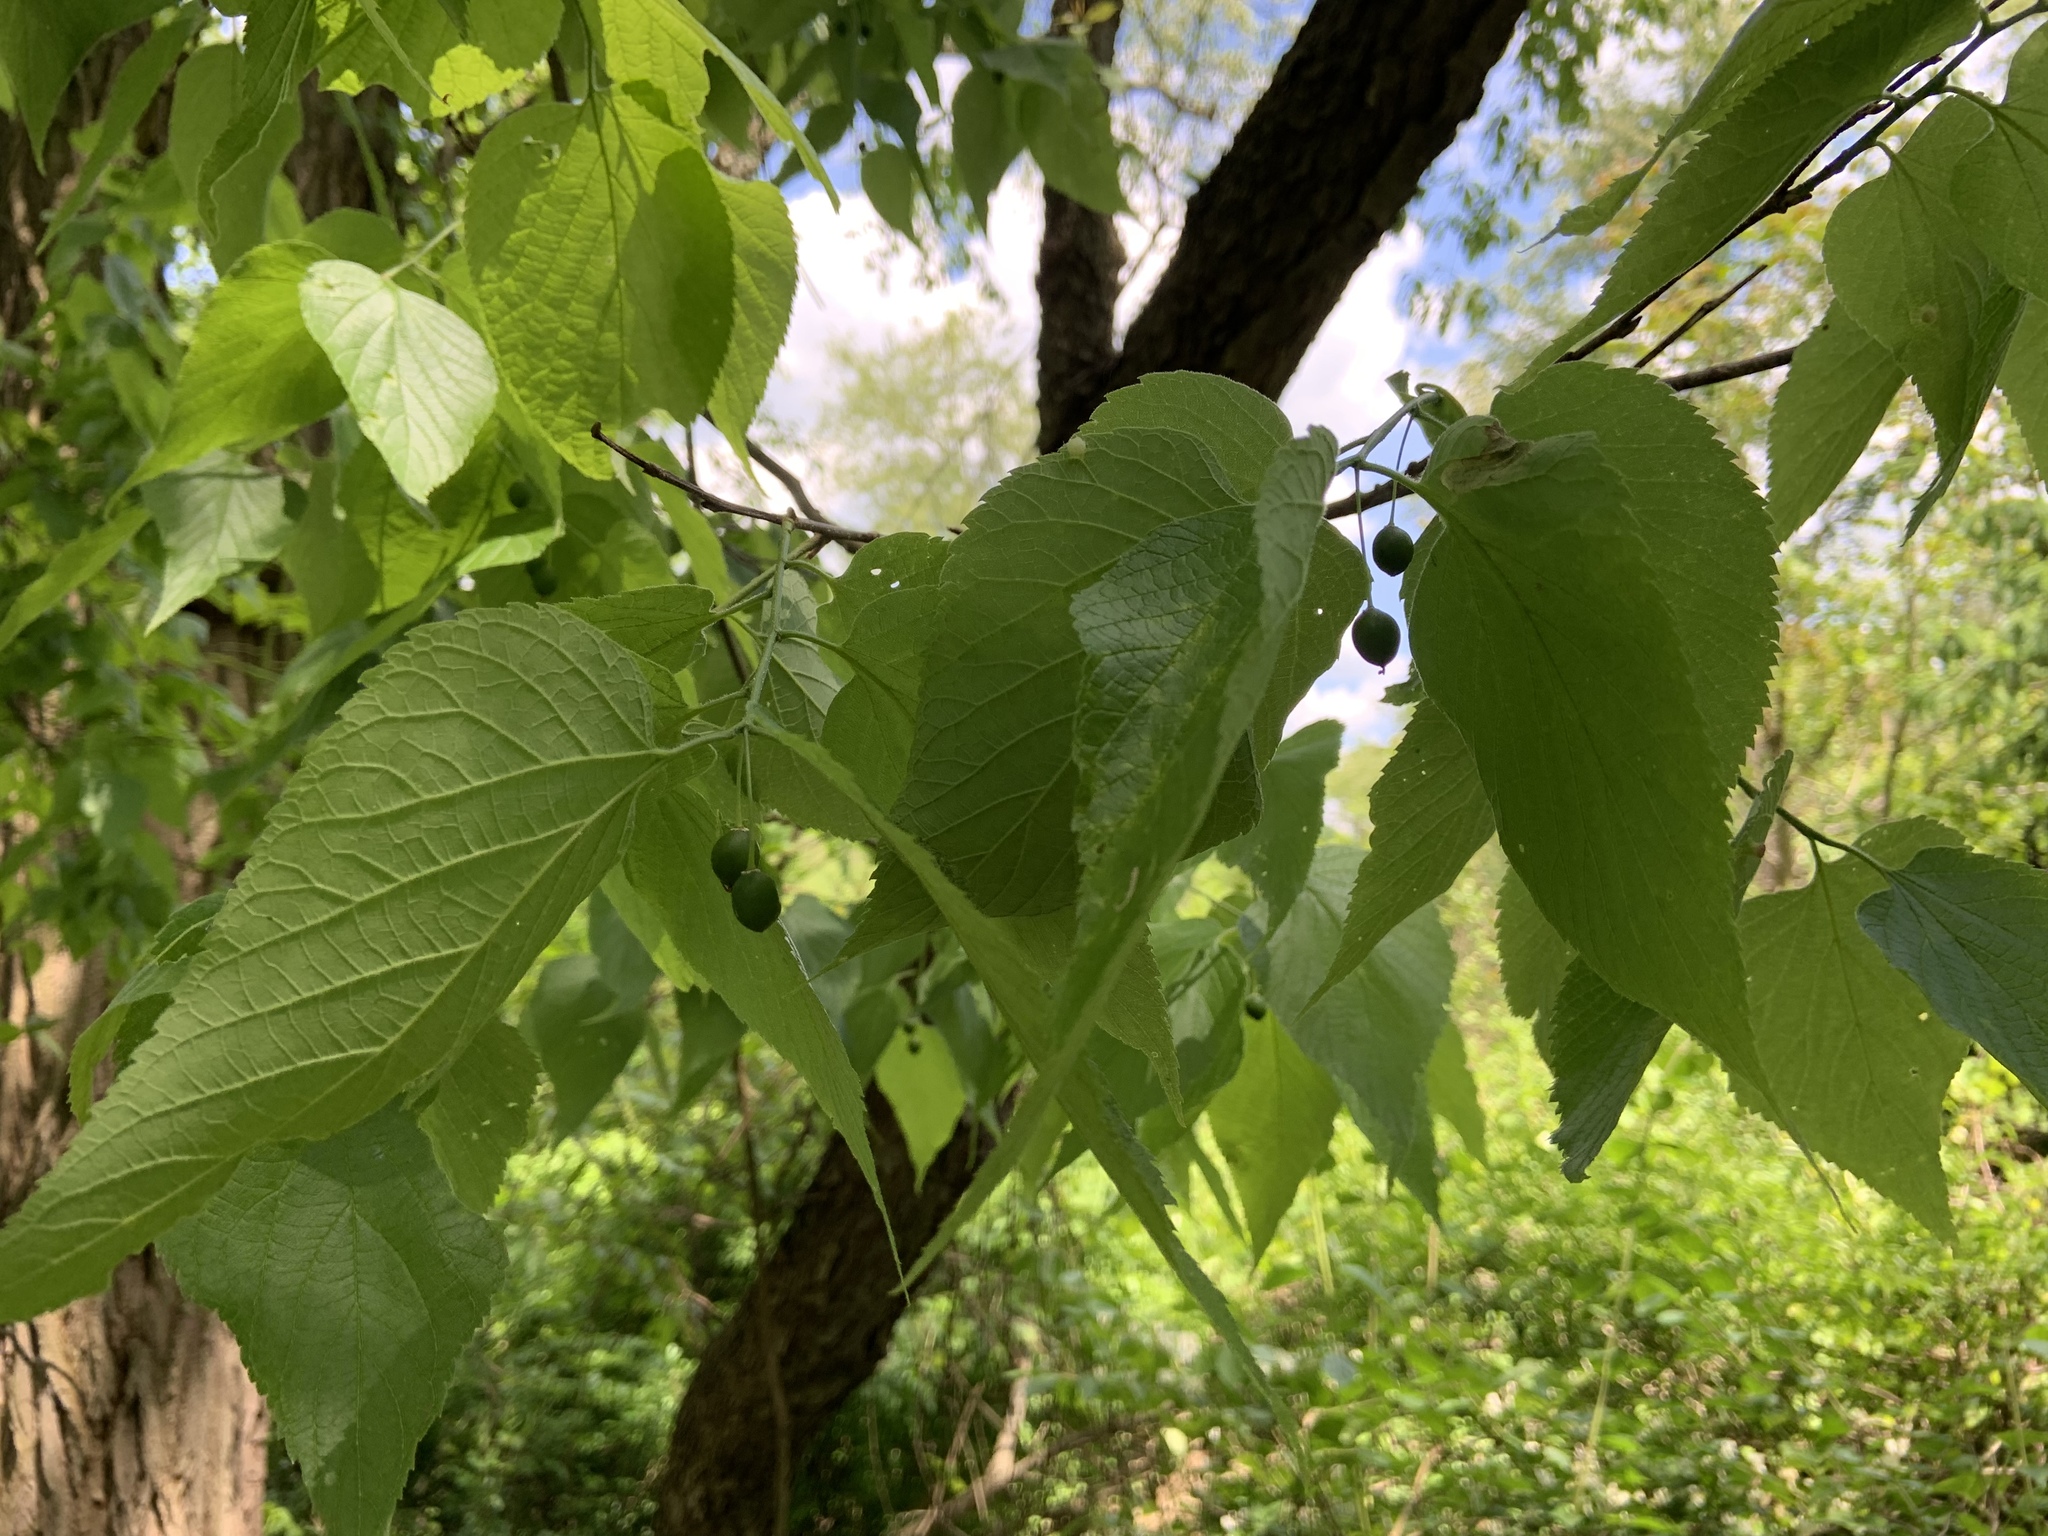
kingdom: Plantae
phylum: Tracheophyta
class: Magnoliopsida
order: Rosales
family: Cannabaceae
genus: Celtis
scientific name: Celtis occidentalis
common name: Common hackberry
